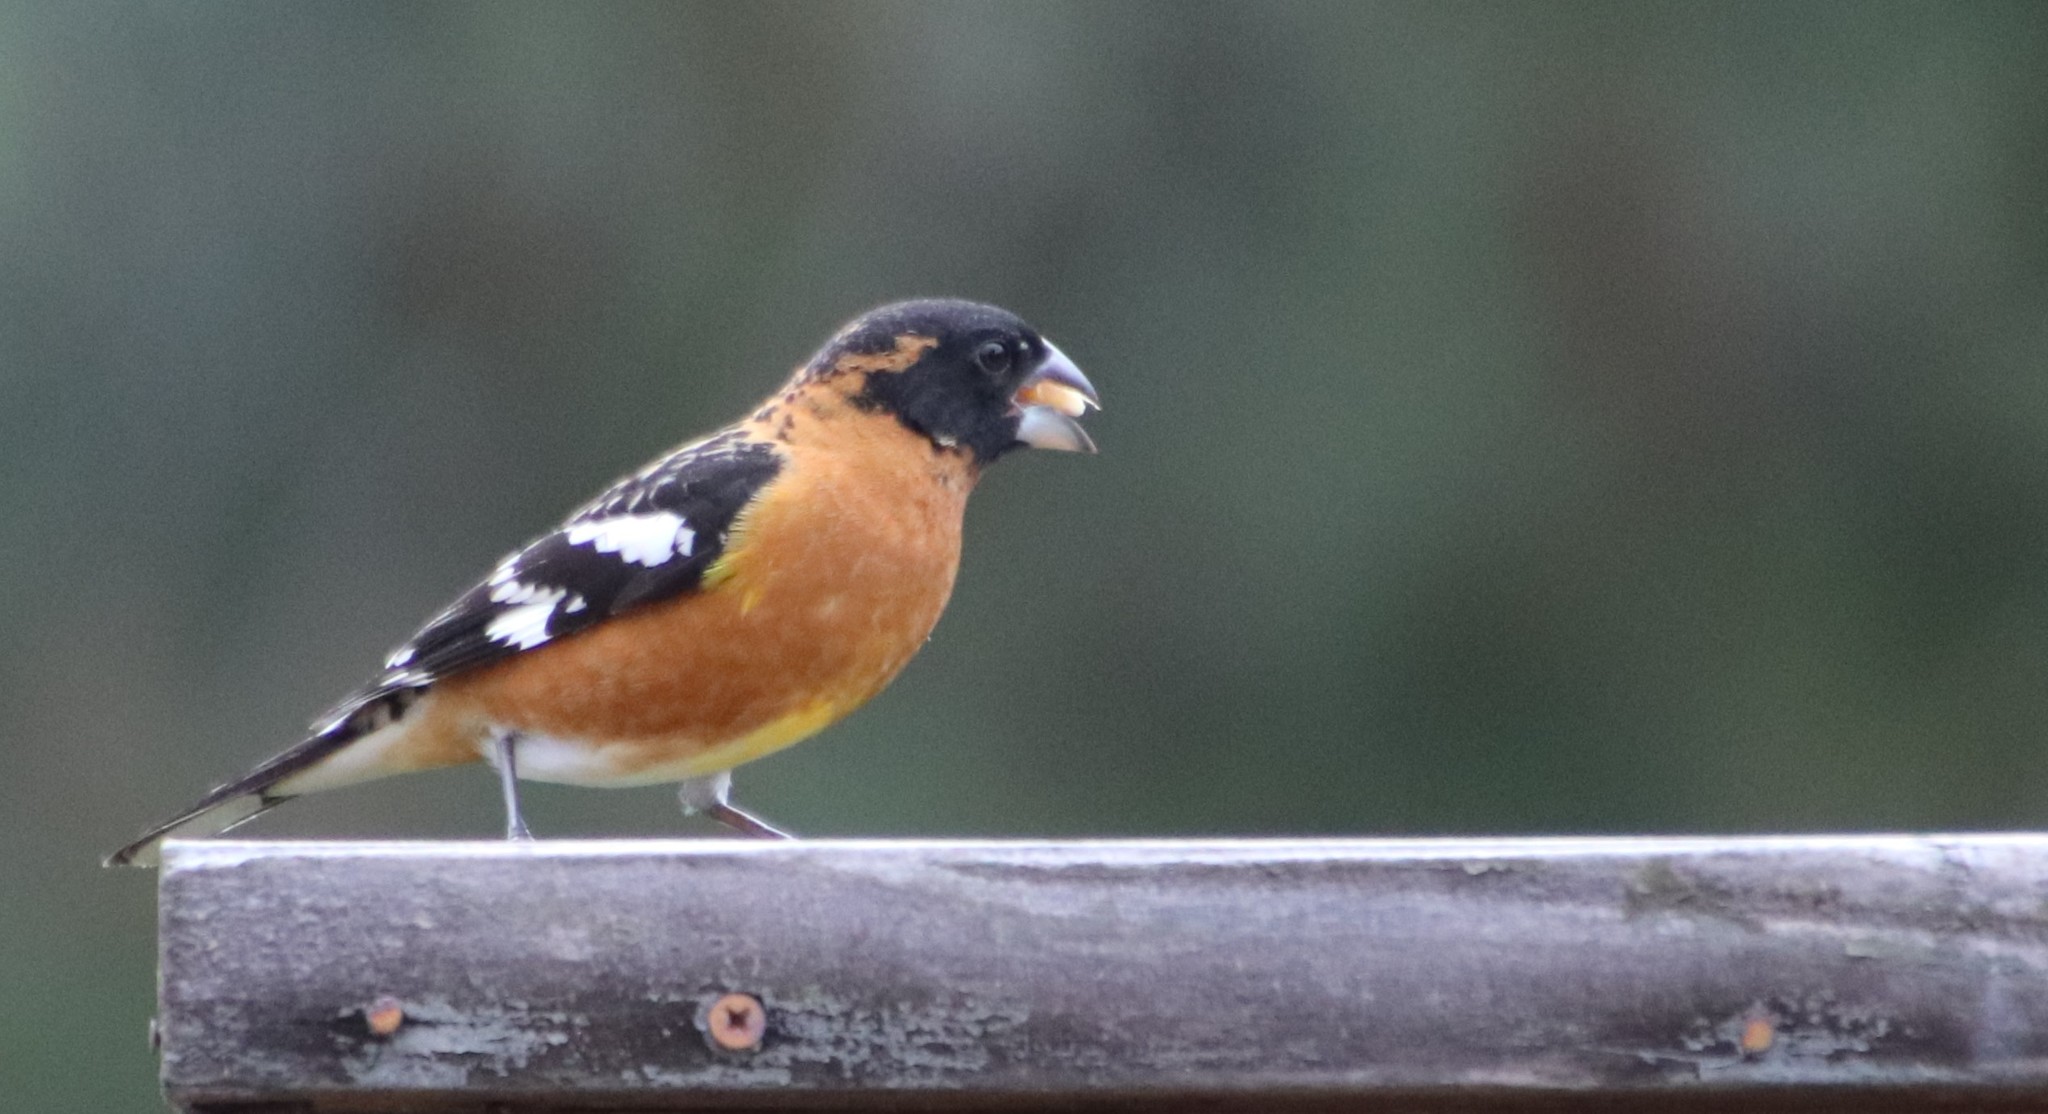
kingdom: Animalia
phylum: Chordata
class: Aves
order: Passeriformes
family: Cardinalidae
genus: Pheucticus
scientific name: Pheucticus melanocephalus
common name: Black-headed grosbeak
